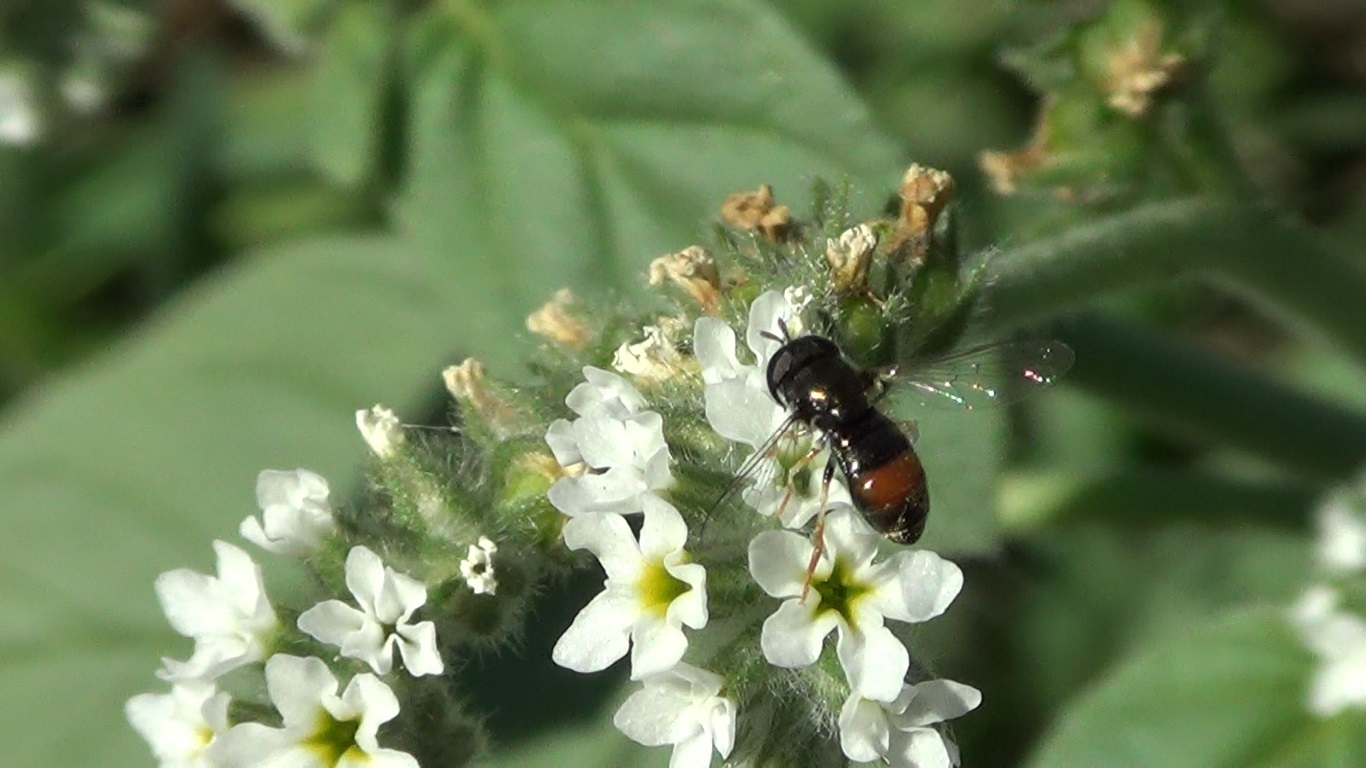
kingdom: Animalia
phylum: Arthropoda
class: Insecta
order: Diptera
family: Syrphidae
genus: Paragus
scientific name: Paragus haemorrhous
